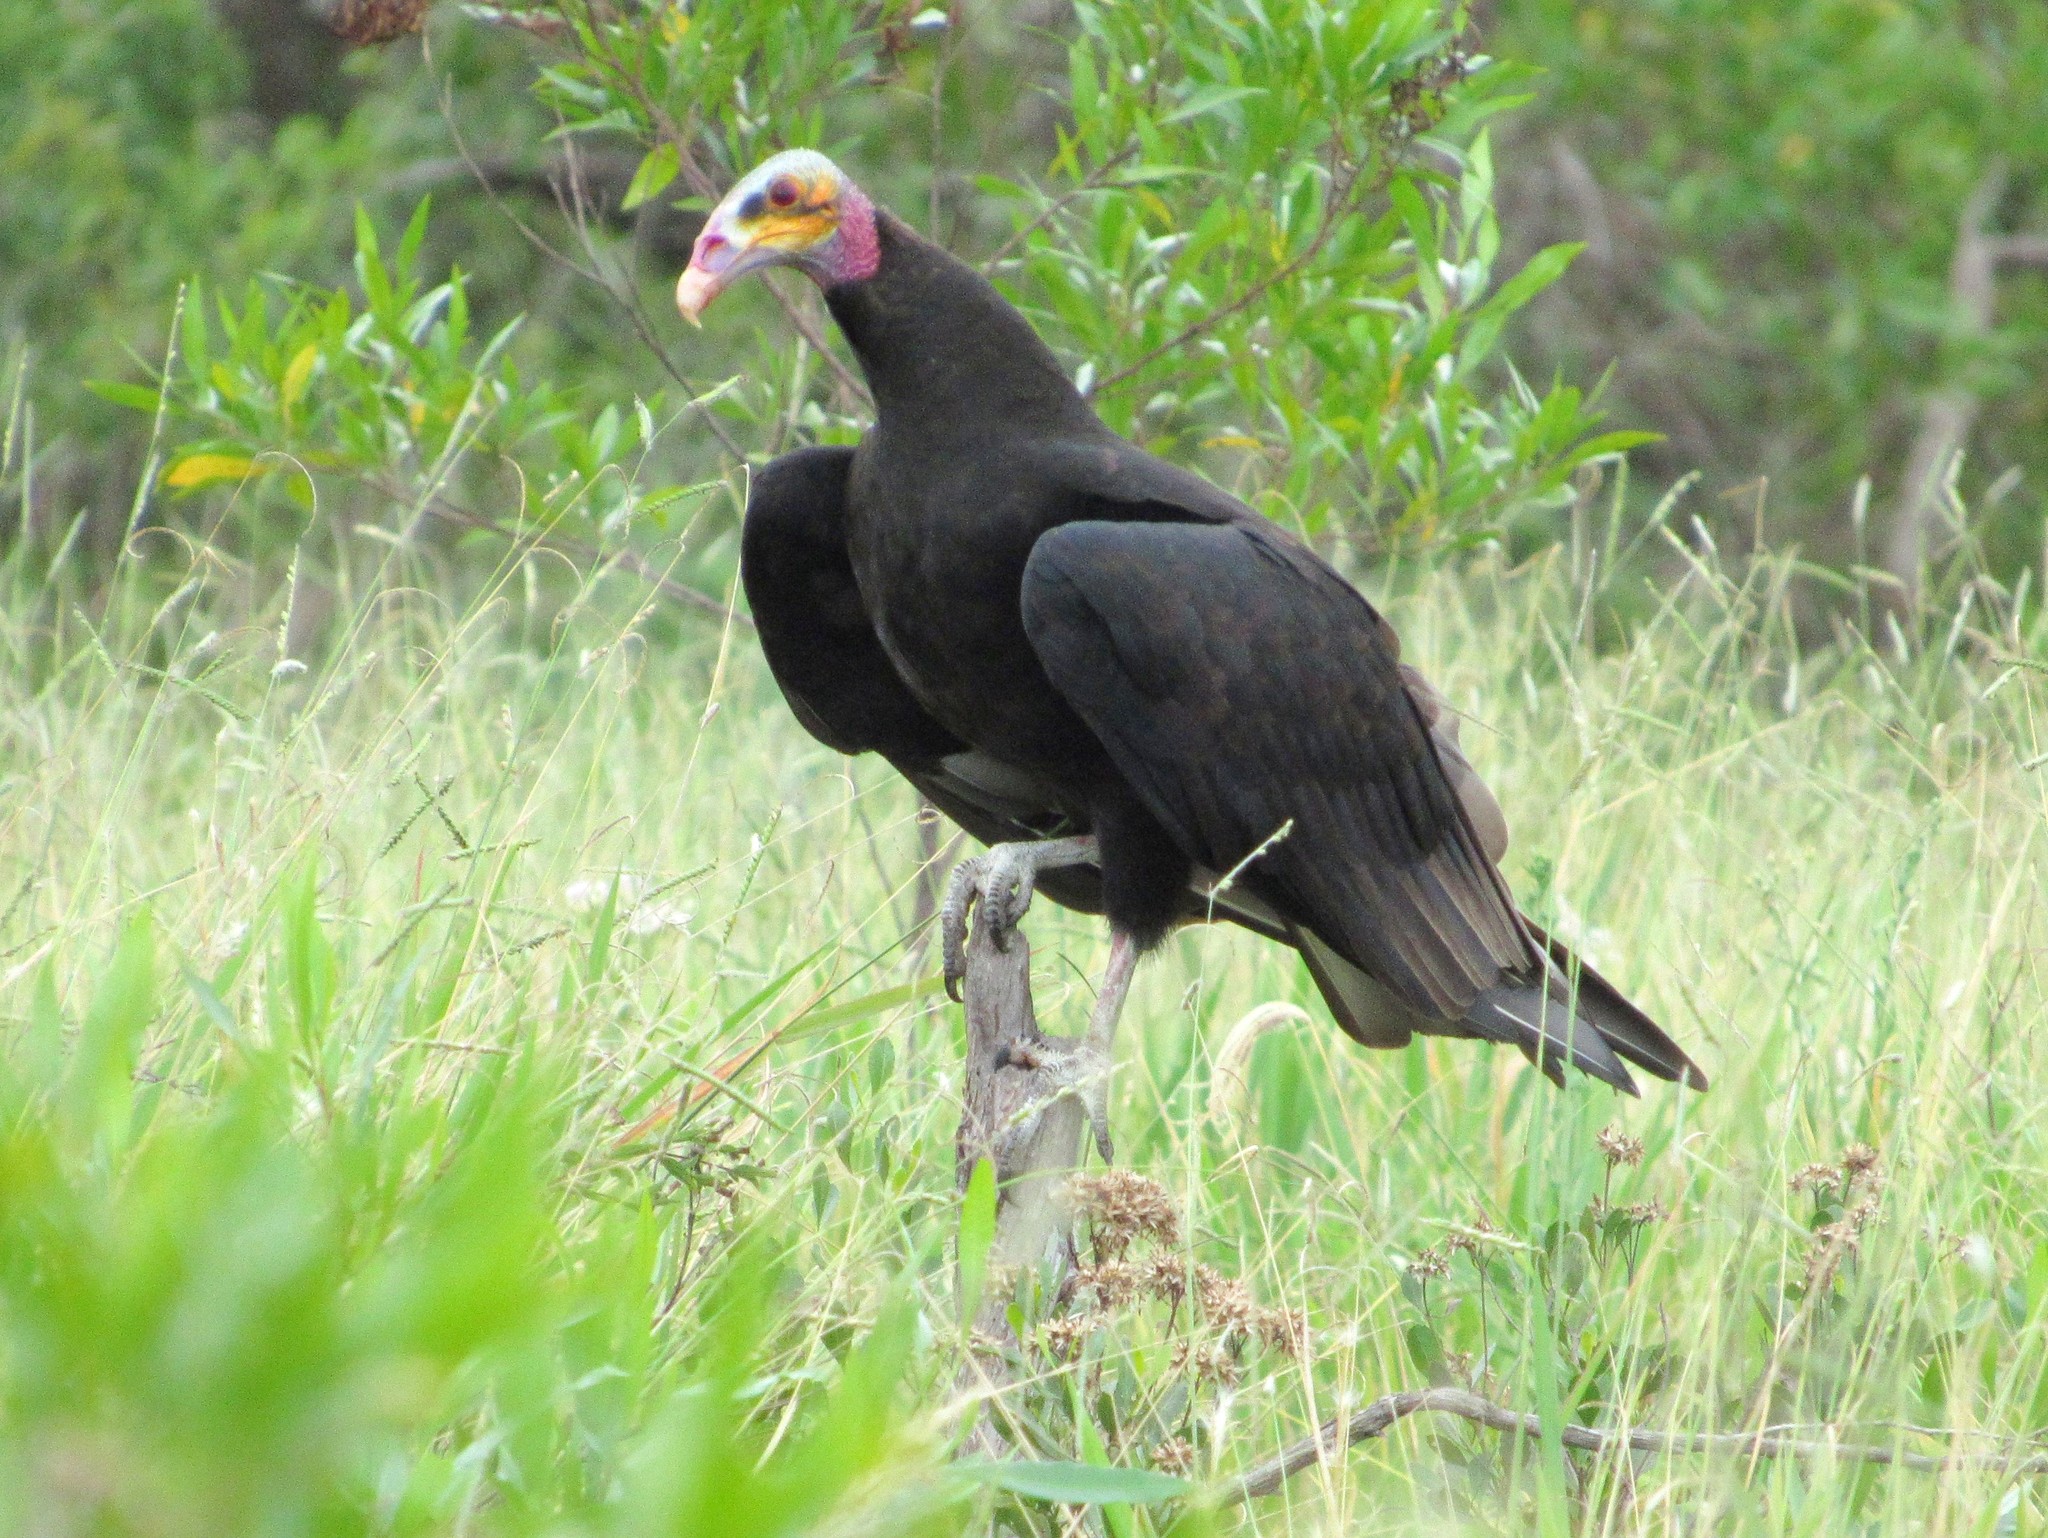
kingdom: Animalia
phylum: Chordata
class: Aves
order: Accipitriformes
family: Cathartidae
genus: Cathartes
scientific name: Cathartes burrovianus
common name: Lesser yellow-headed vulture
